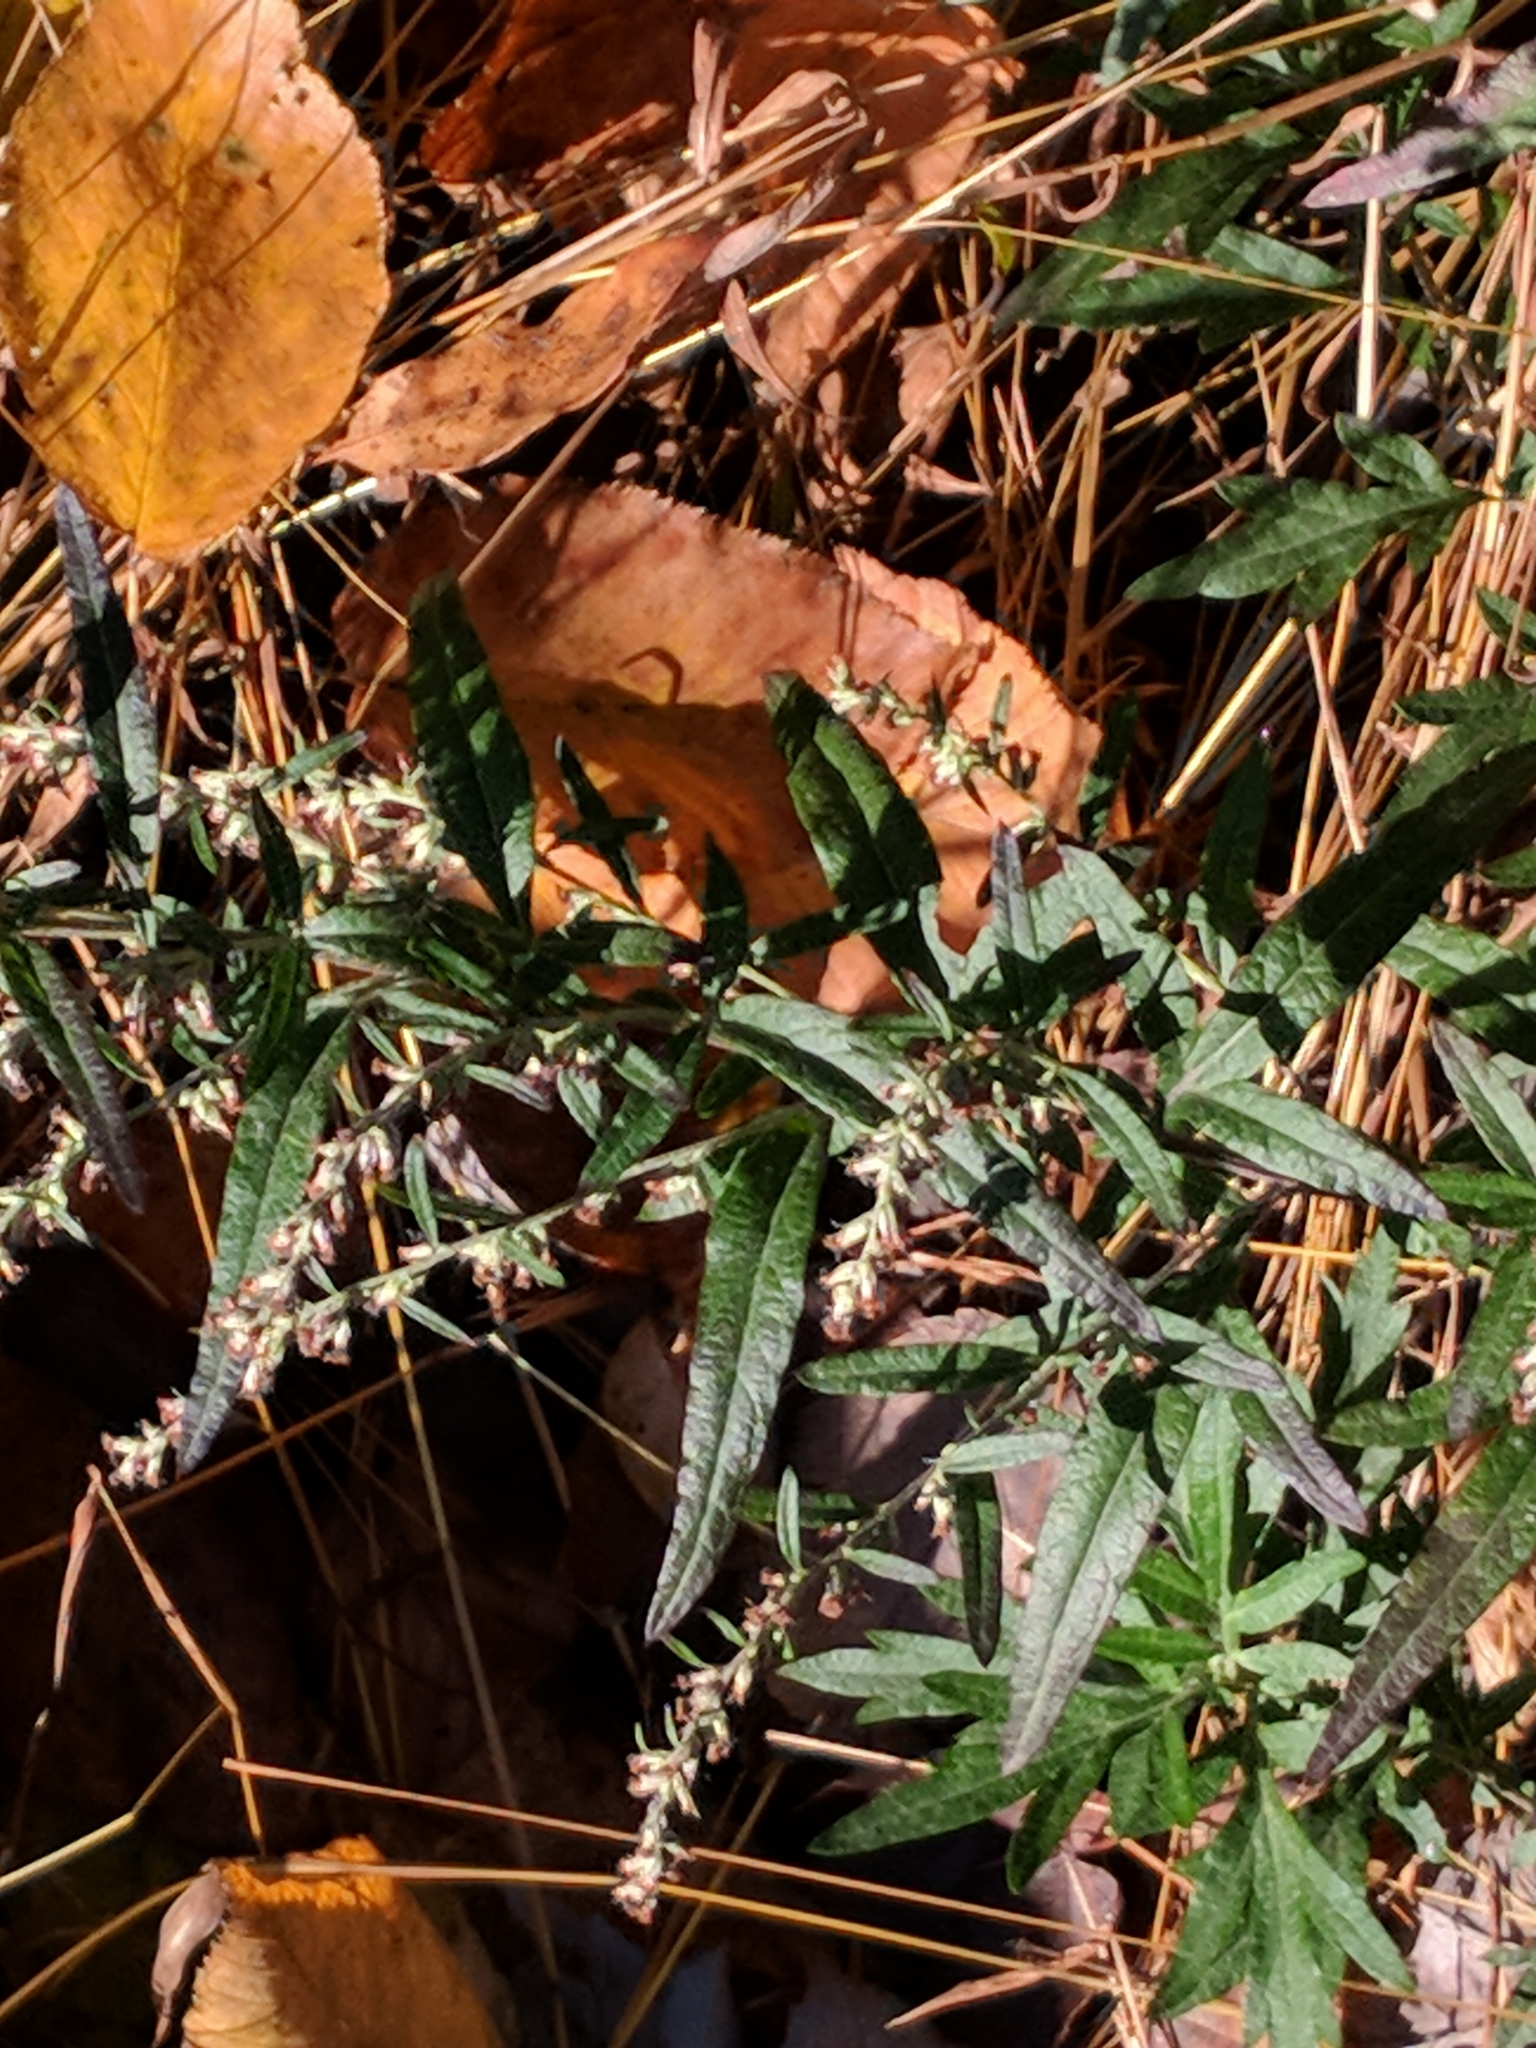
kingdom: Plantae
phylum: Tracheophyta
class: Magnoliopsida
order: Asterales
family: Asteraceae
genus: Artemisia
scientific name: Artemisia vulgaris
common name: Mugwort
